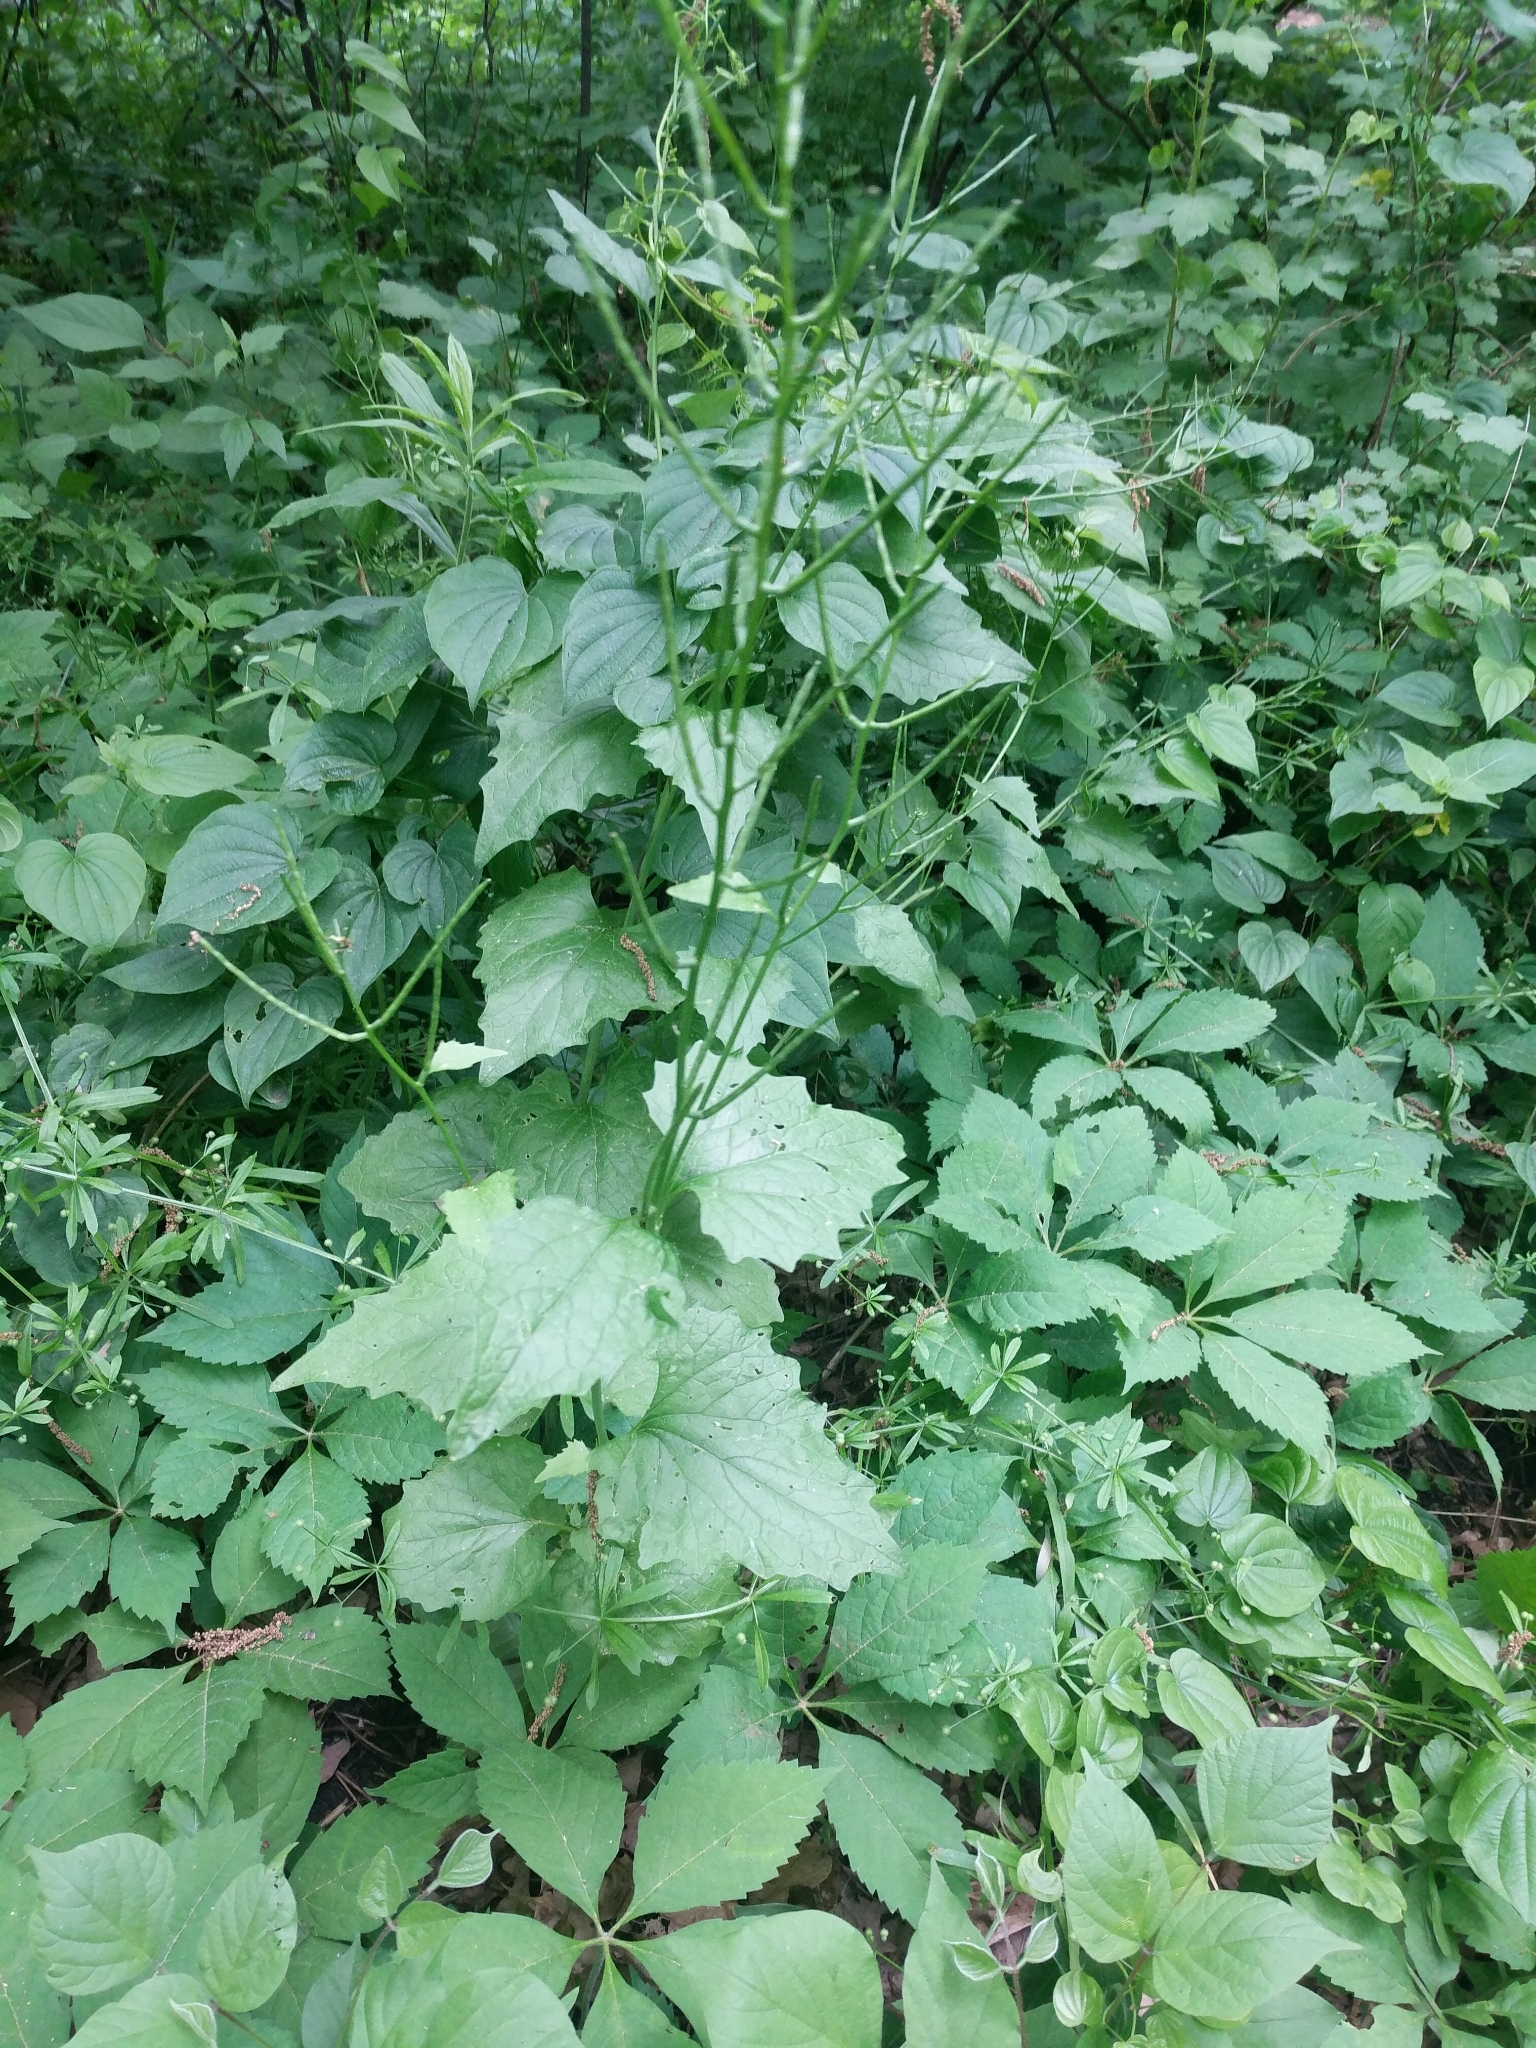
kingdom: Plantae
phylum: Tracheophyta
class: Magnoliopsida
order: Brassicales
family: Brassicaceae
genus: Alliaria
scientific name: Alliaria petiolata
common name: Garlic mustard
